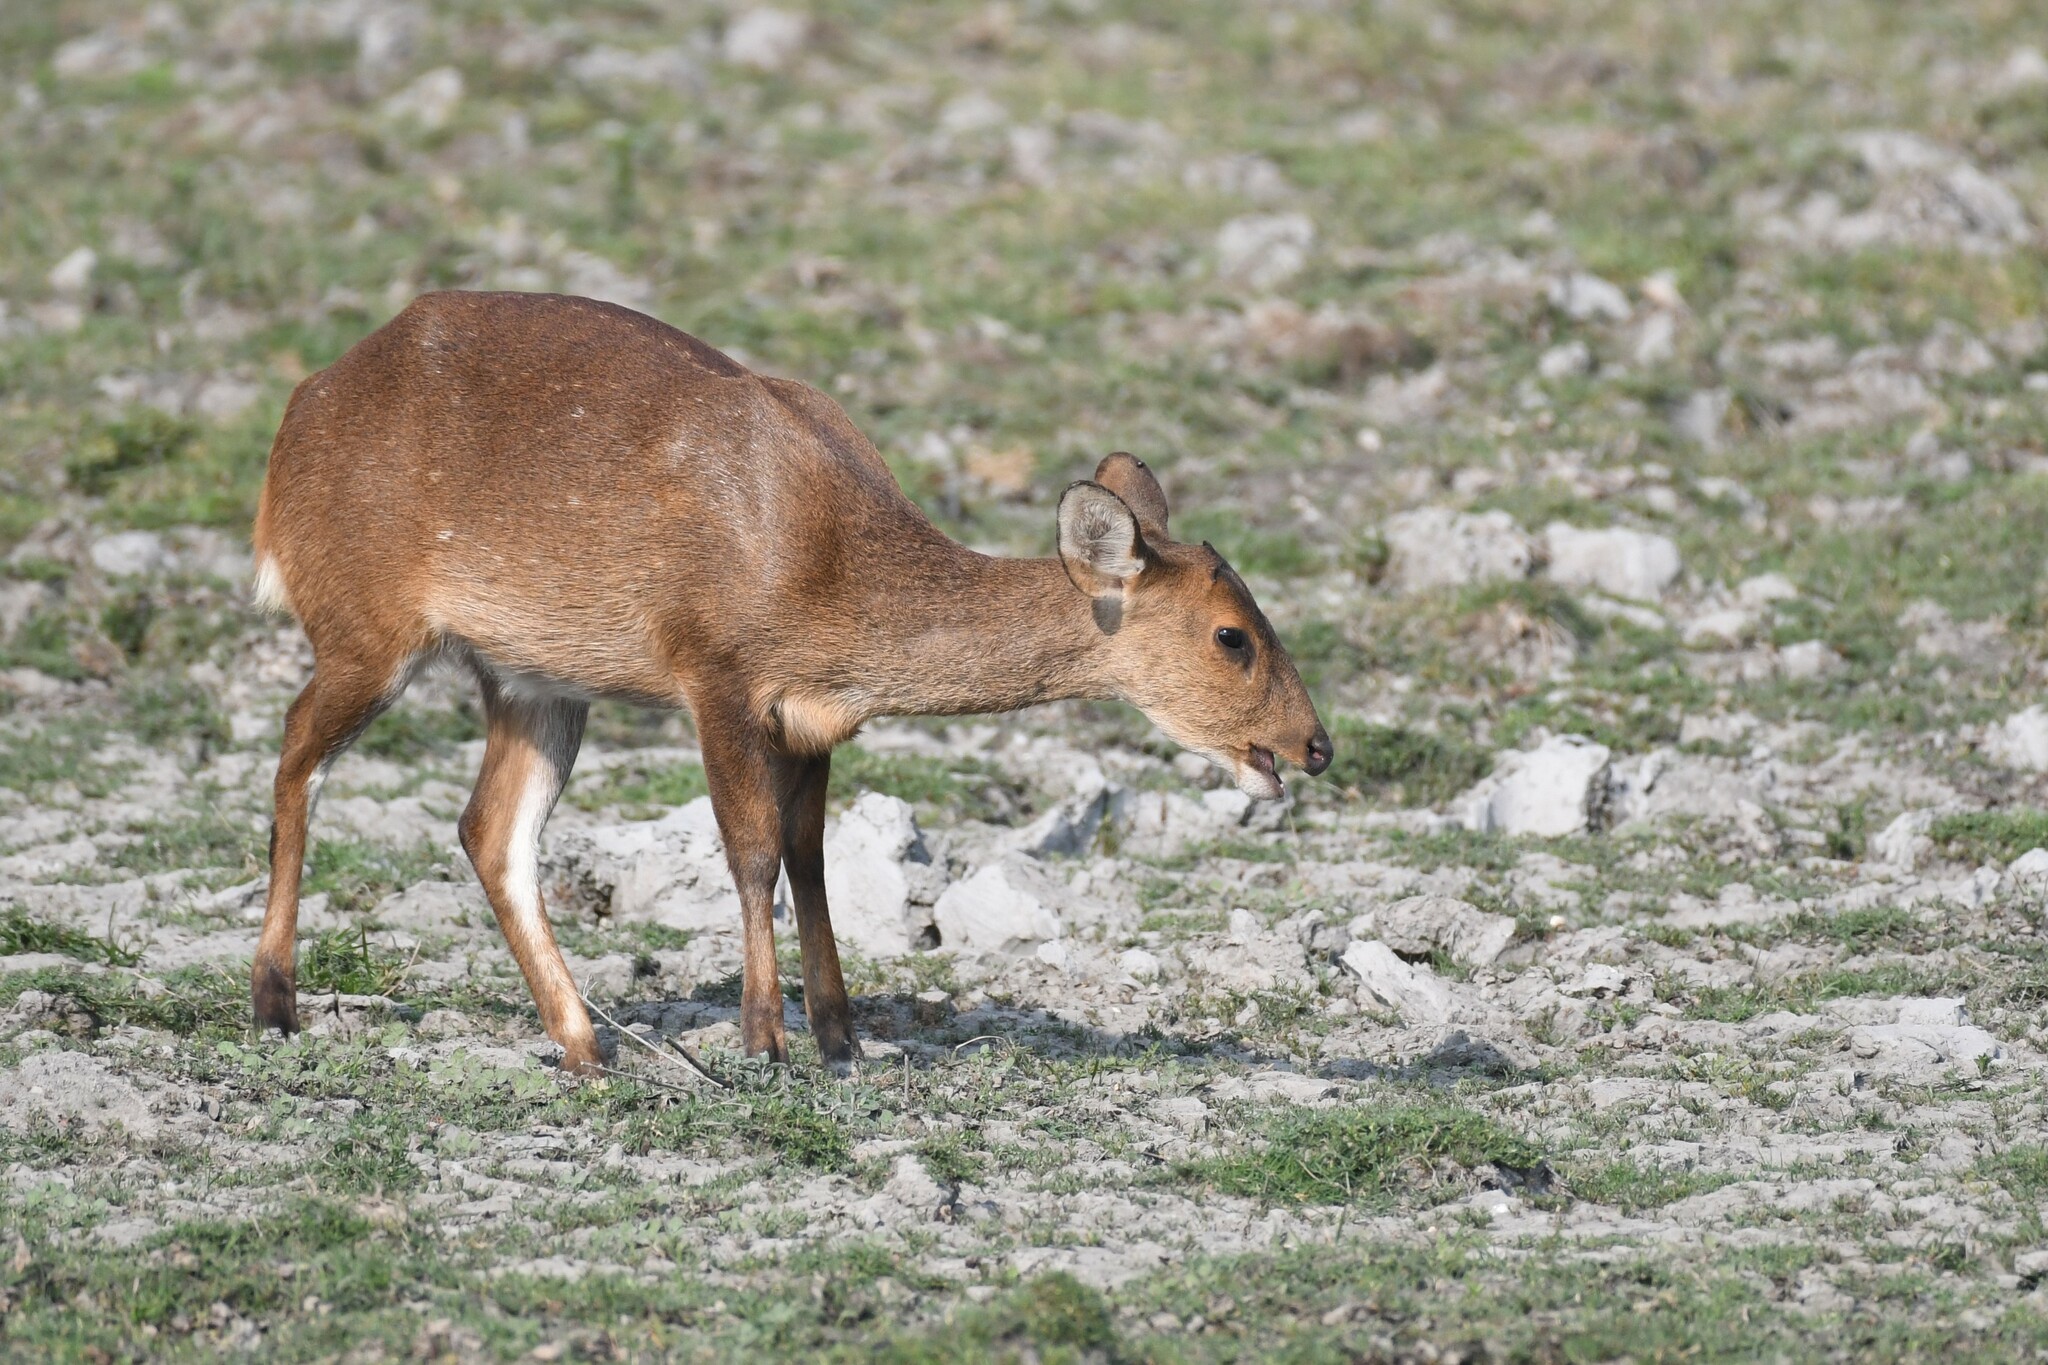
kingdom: Animalia
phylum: Chordata
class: Mammalia
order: Artiodactyla
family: Cervidae
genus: Axis
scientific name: Axis porcinus
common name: Hog deer
